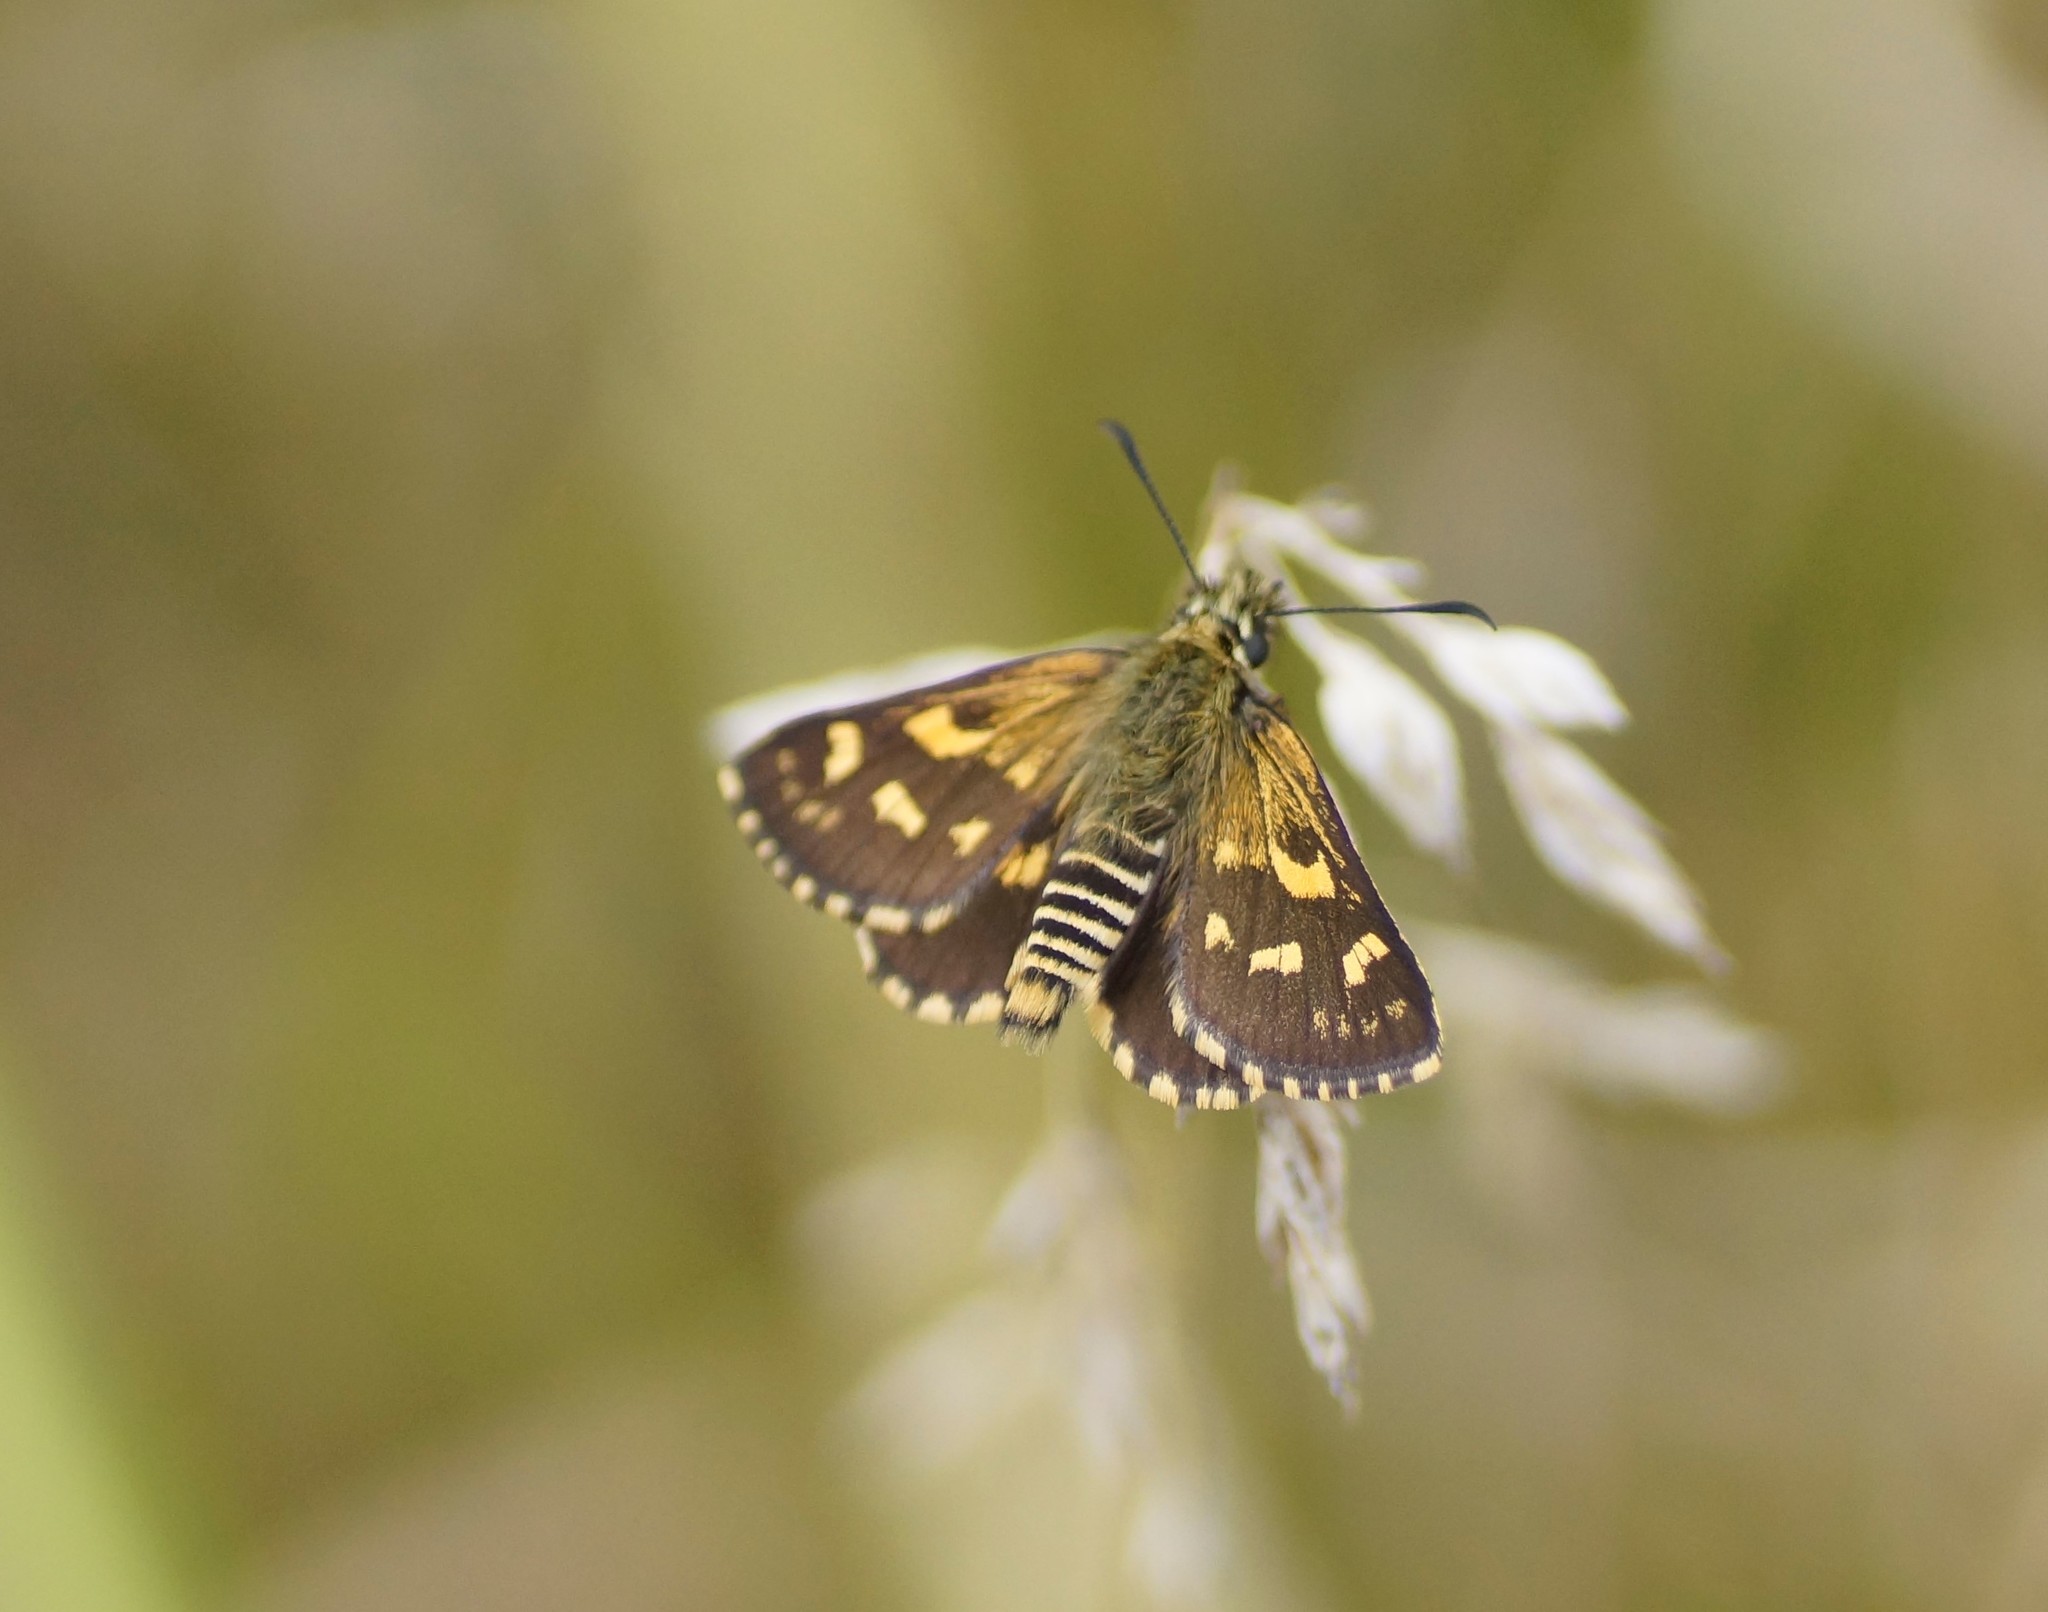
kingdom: Animalia
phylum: Arthropoda
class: Insecta
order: Lepidoptera
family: Hesperiidae
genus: Oreisplanus
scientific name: Oreisplanus munionga
